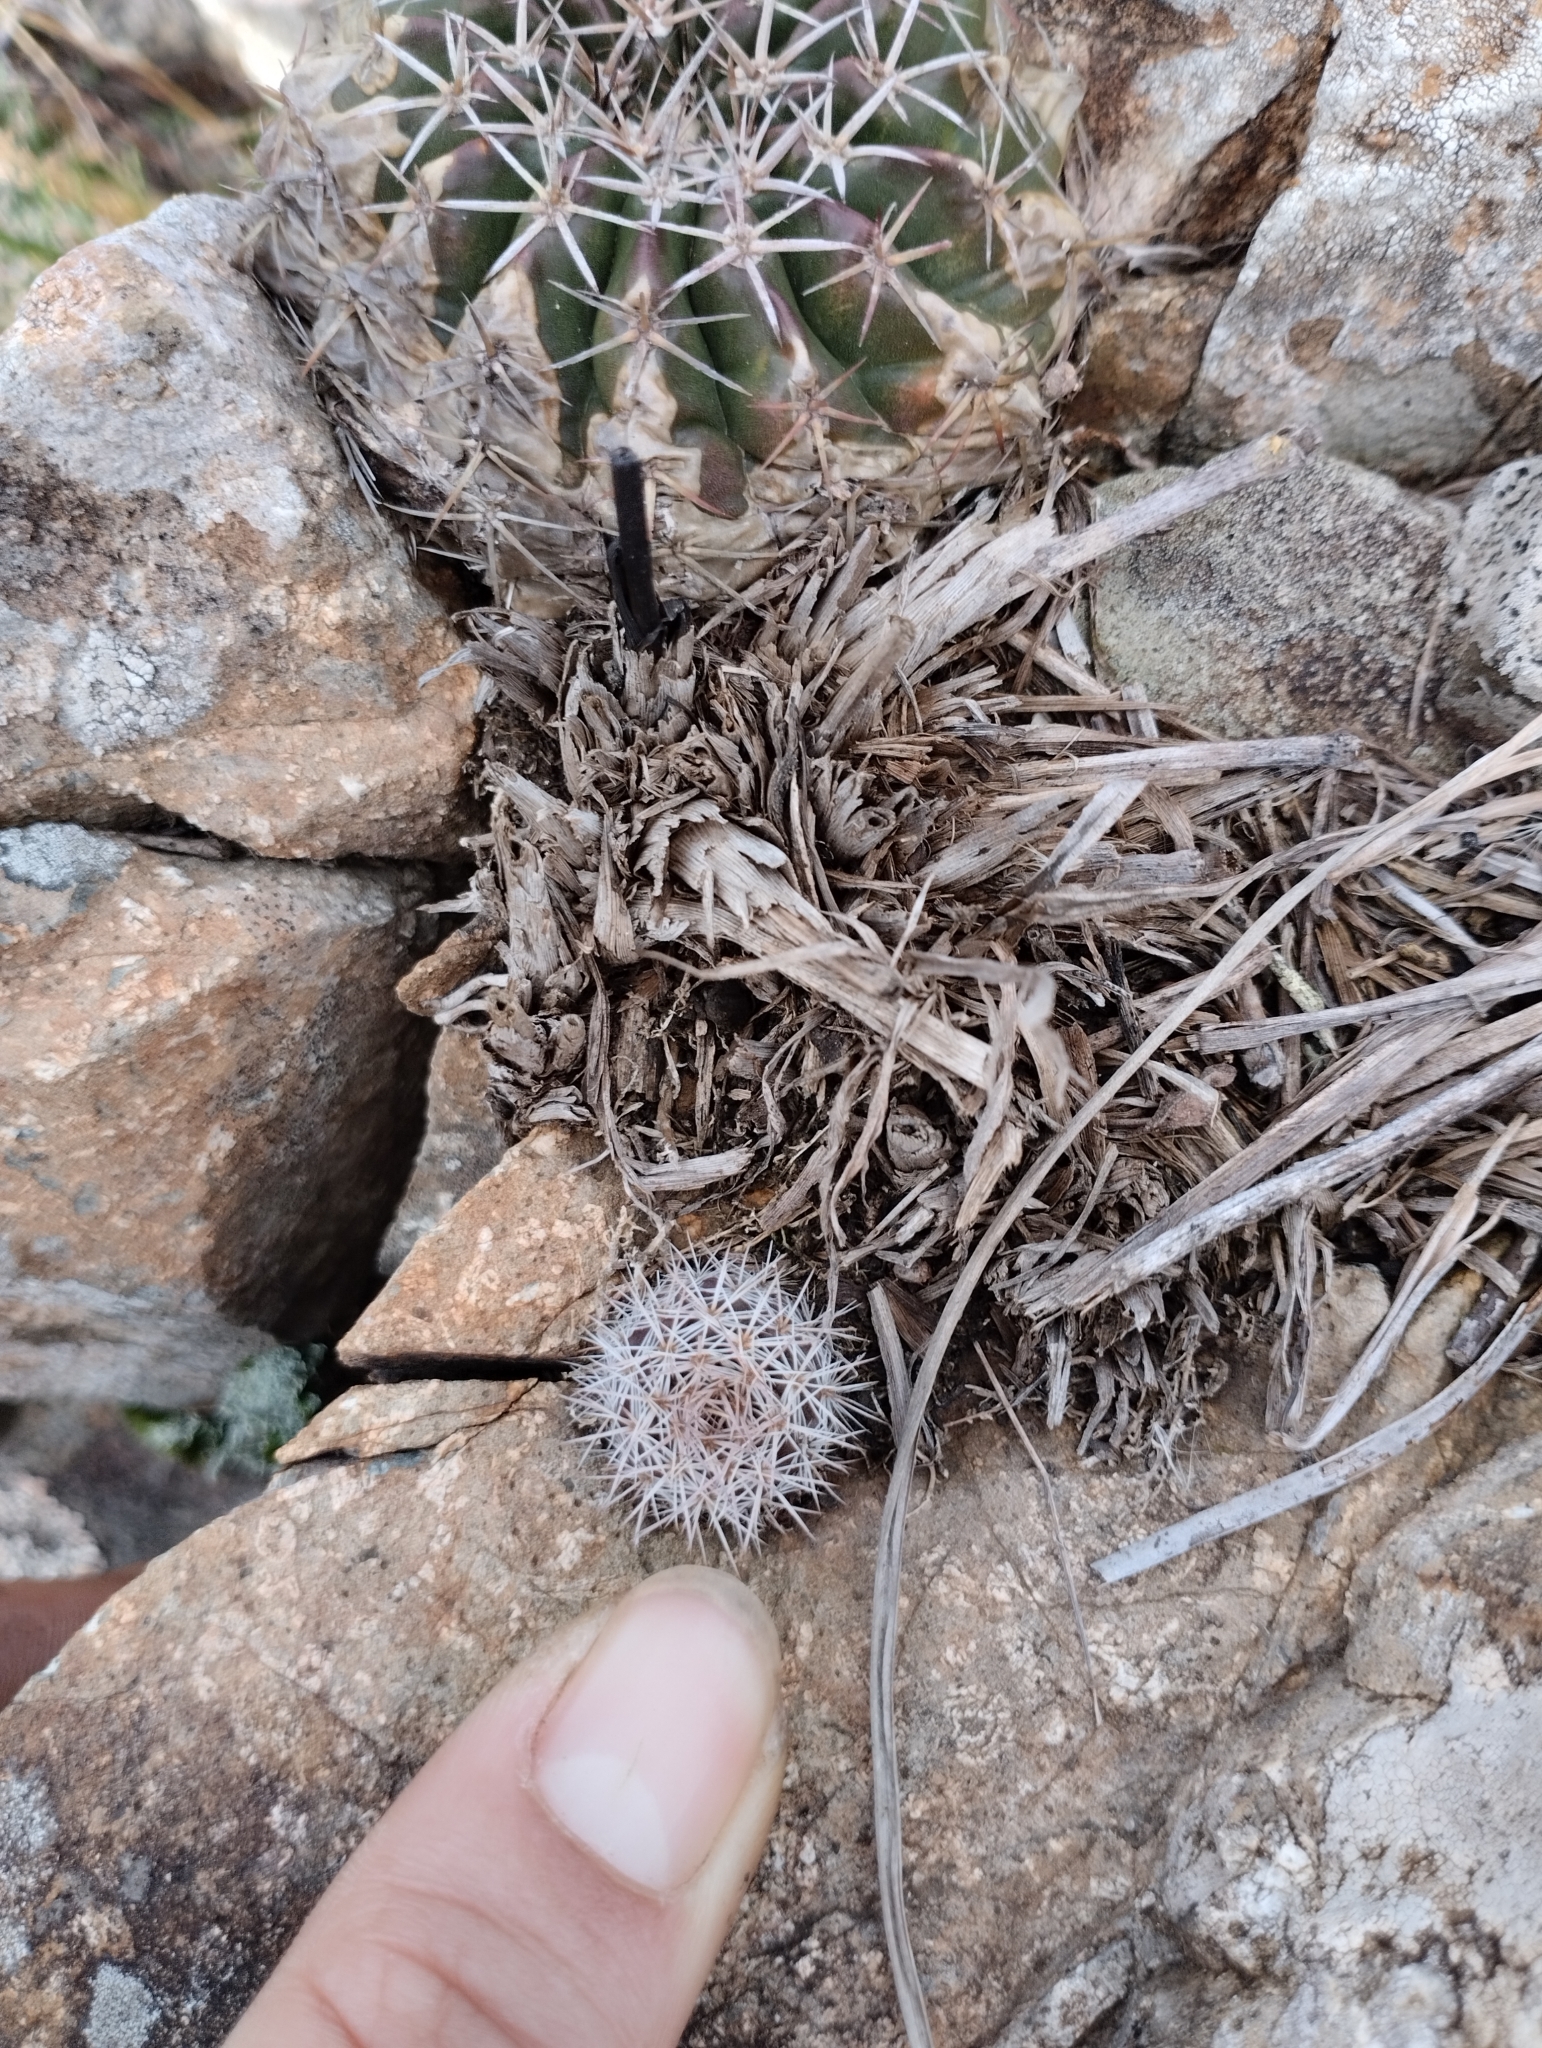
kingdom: Plantae
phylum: Tracheophyta
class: Magnoliopsida
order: Caryophyllales
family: Cactaceae
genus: Parodia
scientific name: Parodia mammulosa
